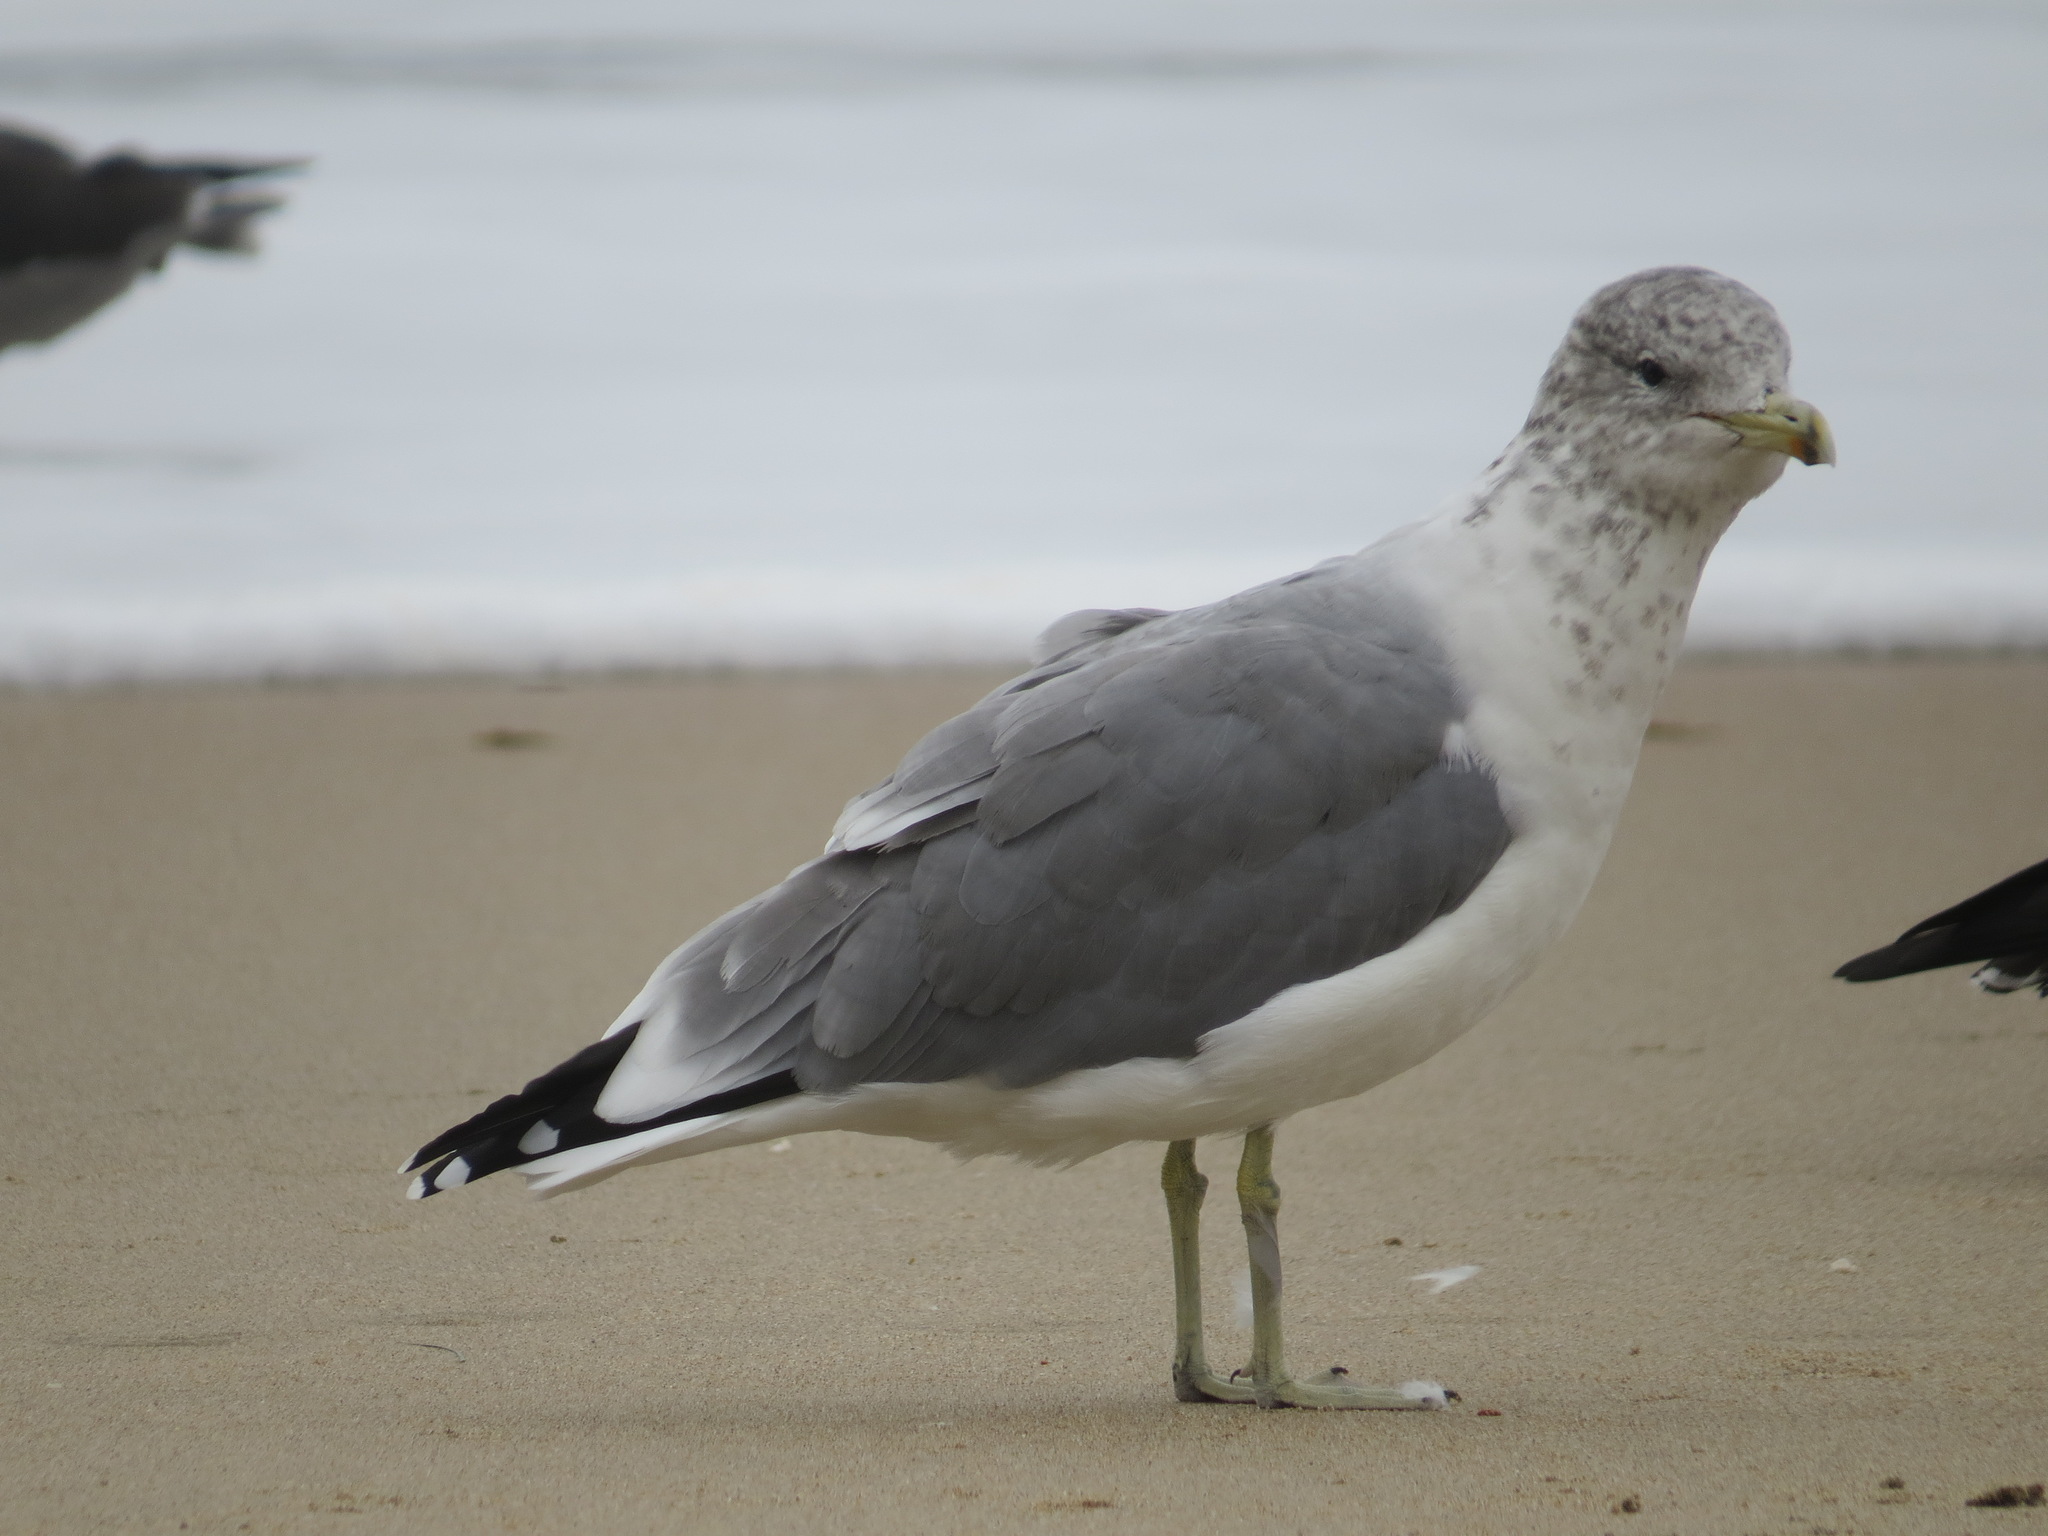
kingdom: Animalia
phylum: Chordata
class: Aves
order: Charadriiformes
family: Laridae
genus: Larus
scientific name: Larus californicus
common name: California gull
